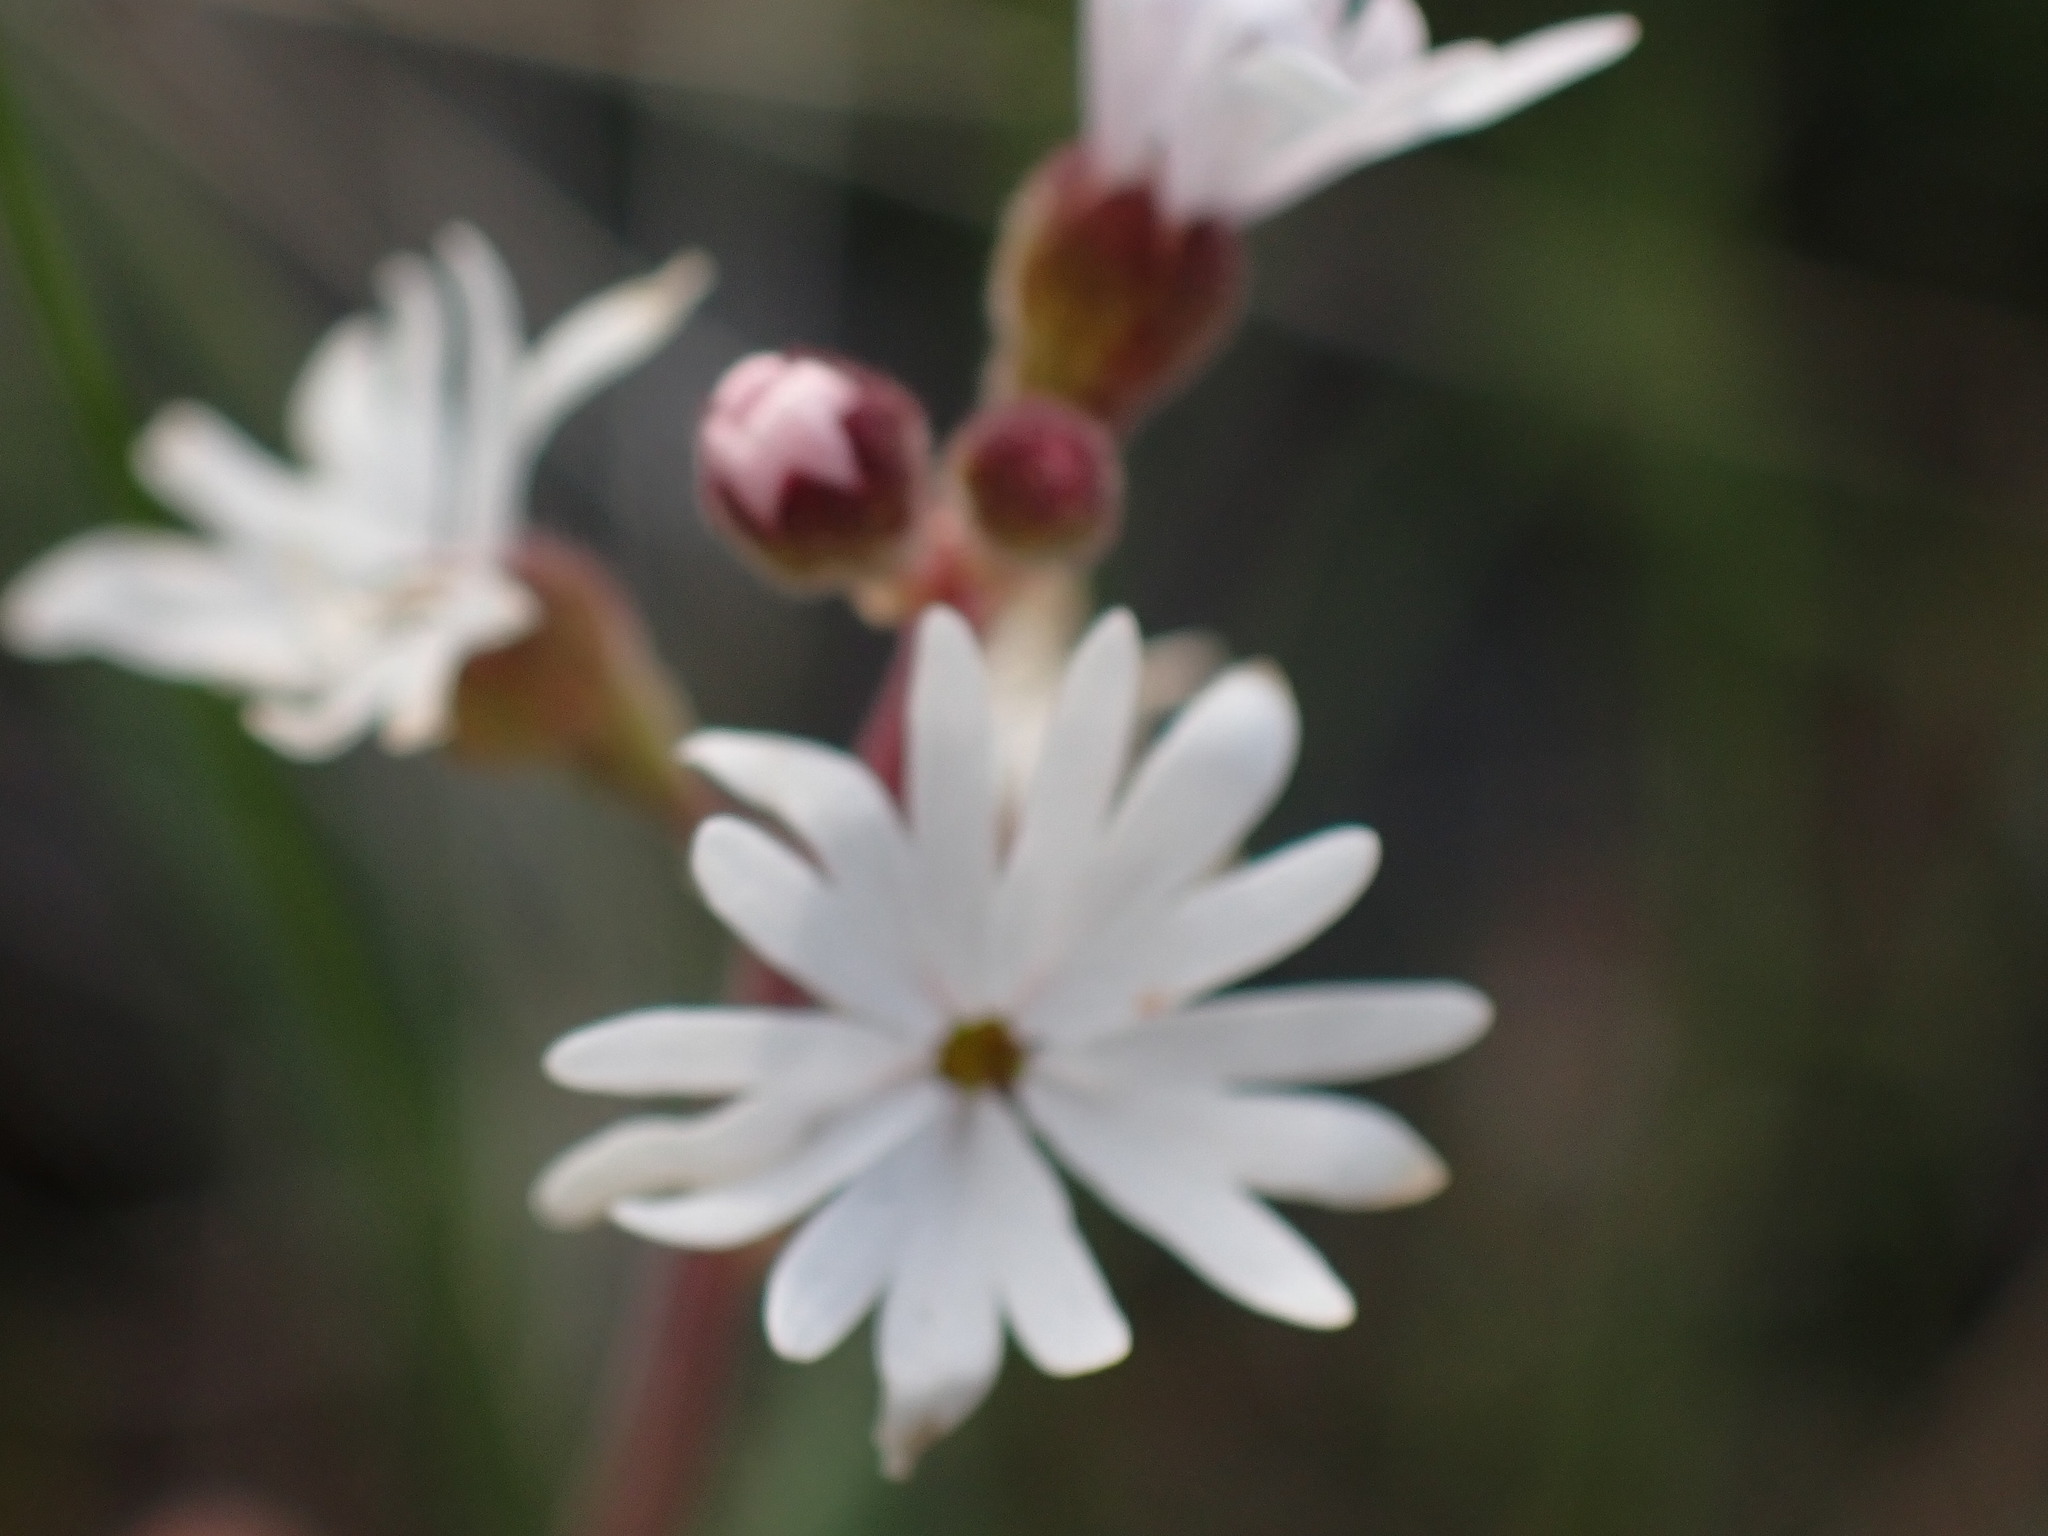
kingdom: Plantae
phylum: Tracheophyta
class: Magnoliopsida
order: Saxifragales
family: Saxifragaceae
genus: Lithophragma
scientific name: Lithophragma parviflorum
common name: Small-flowered fringe-cup
